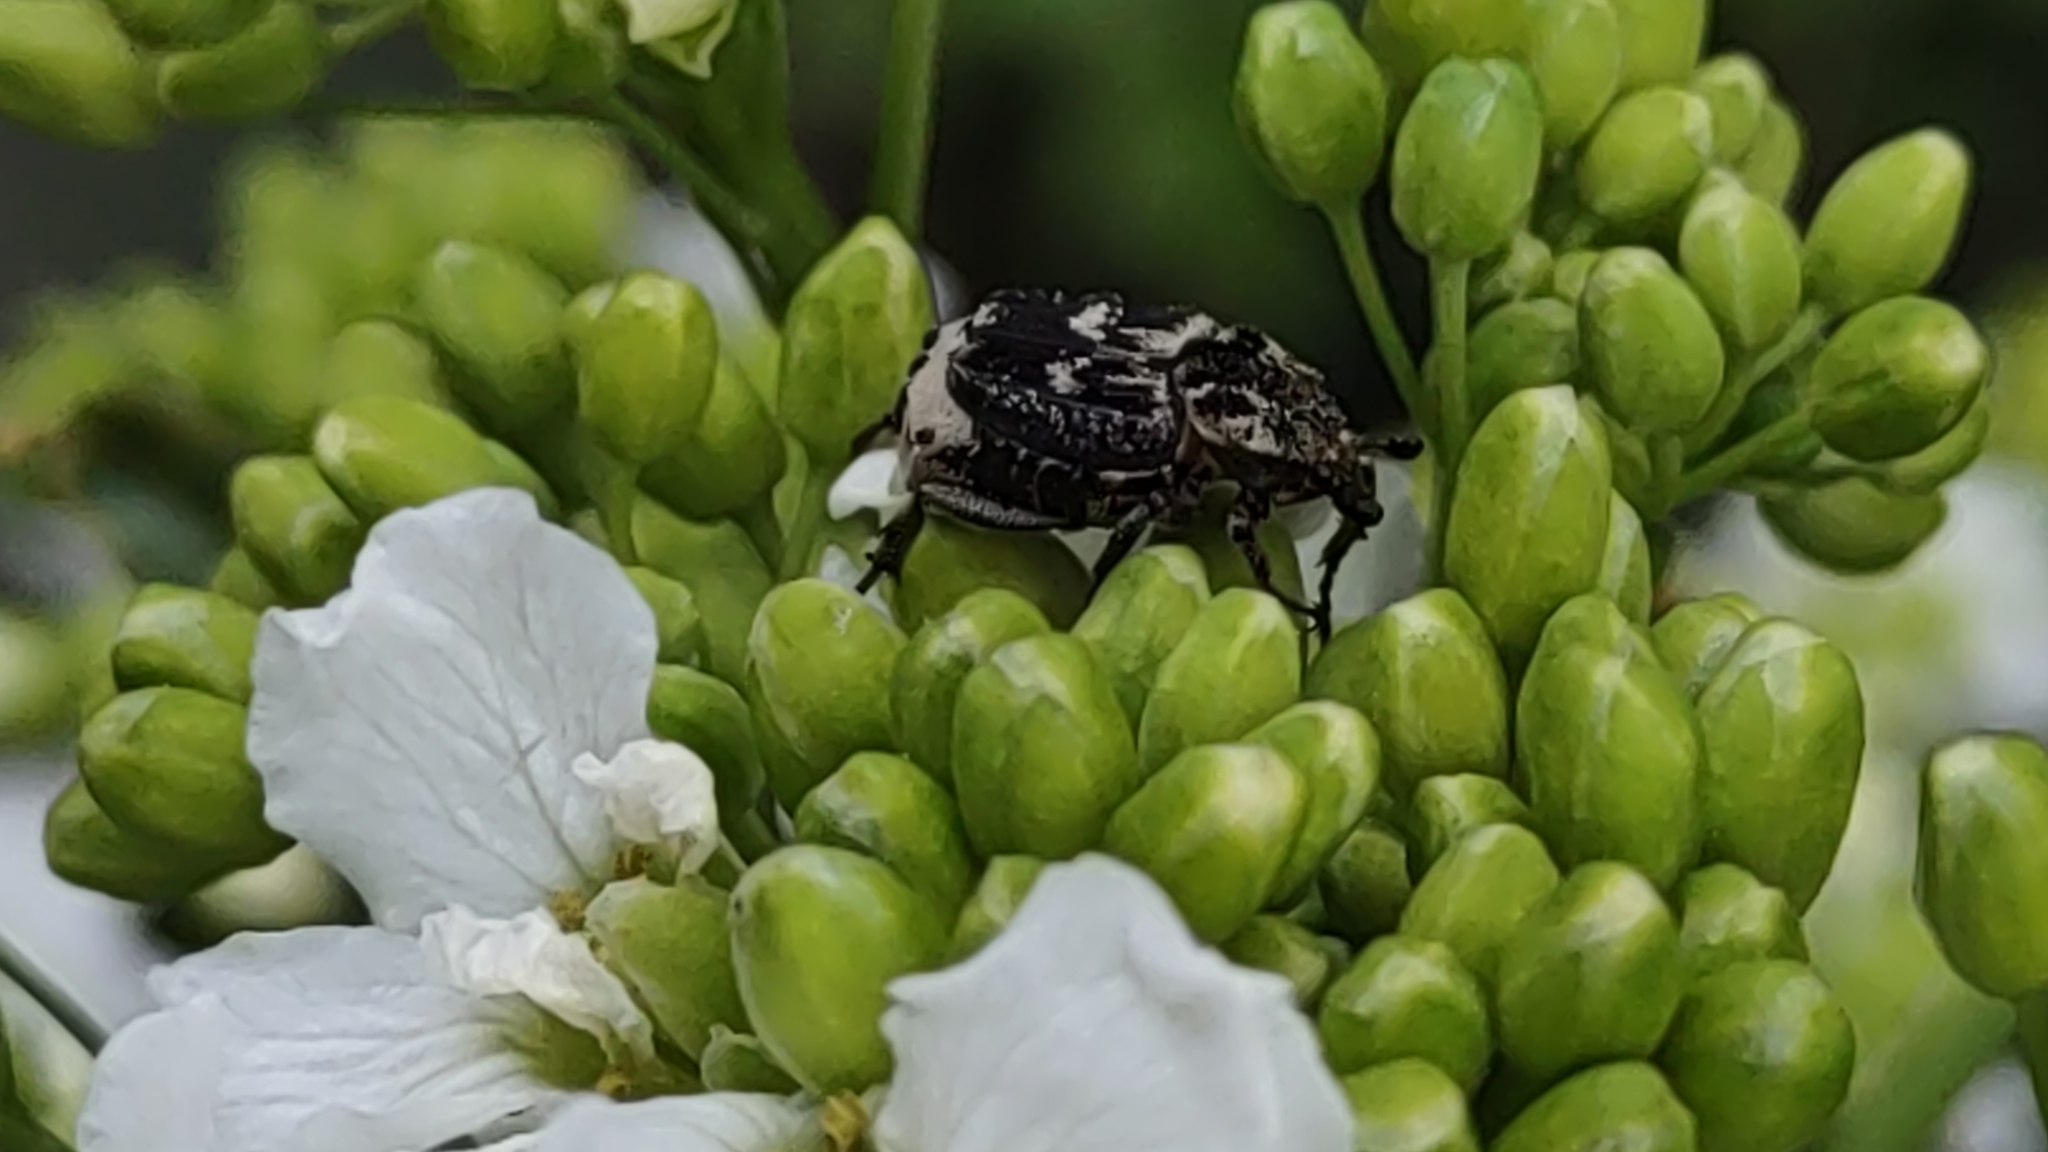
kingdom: Animalia
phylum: Arthropoda
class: Insecta
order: Coleoptera
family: Scarabaeidae
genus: Valgus
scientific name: Valgus hemipterus
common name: Bug flower chafer
